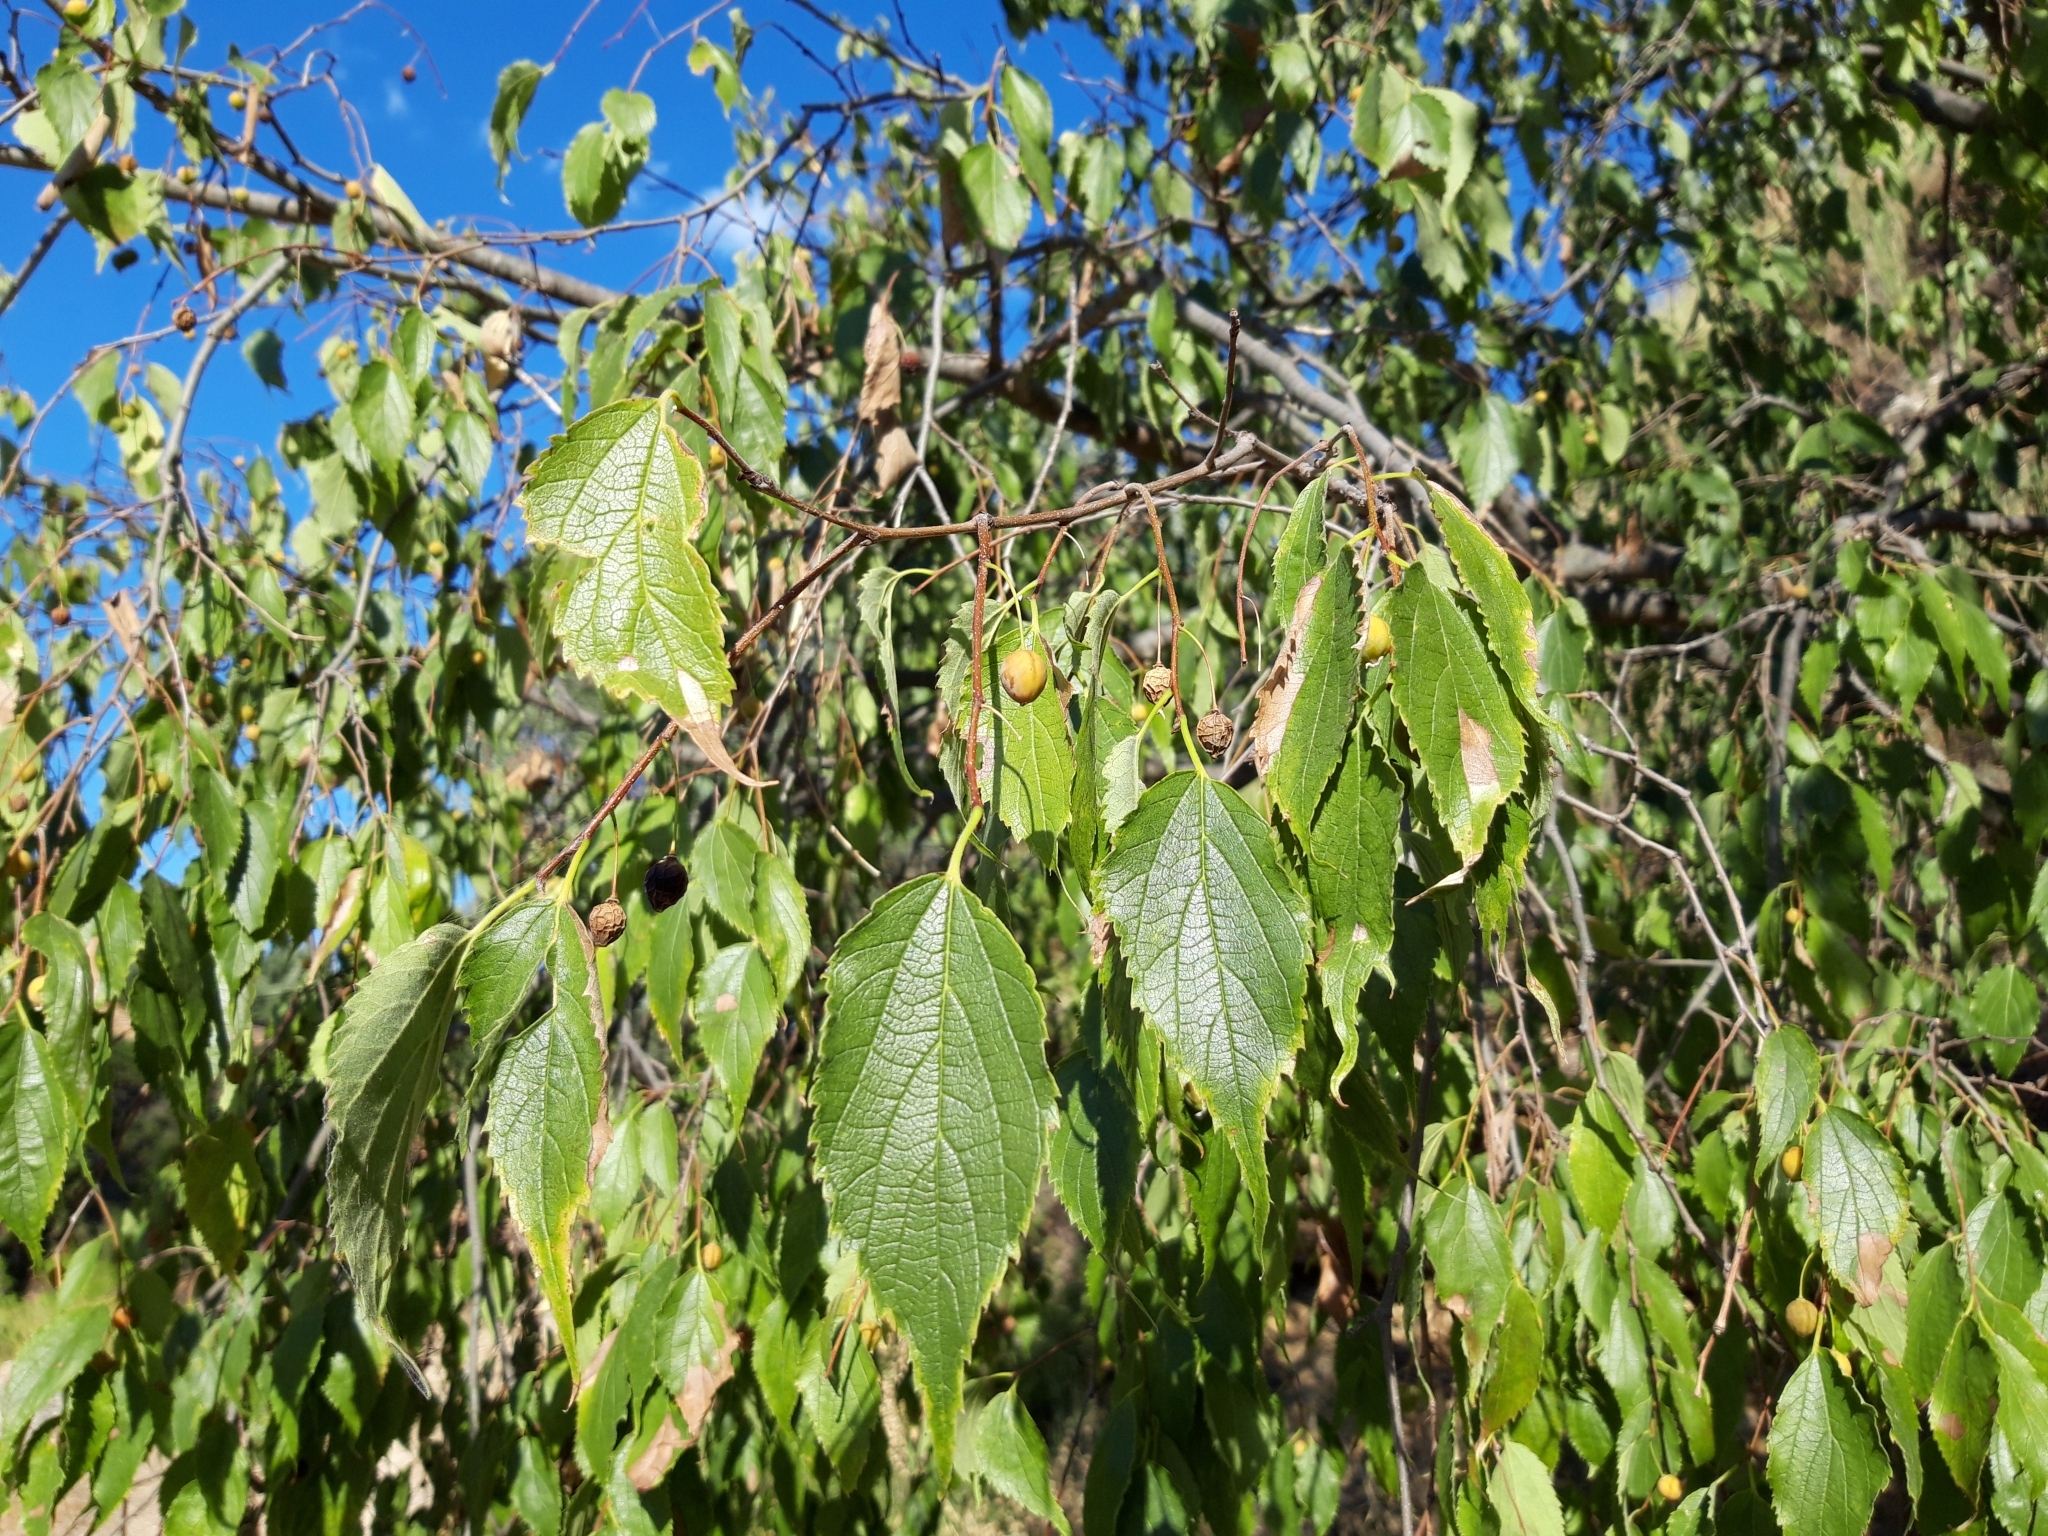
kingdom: Plantae
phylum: Tracheophyta
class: Magnoliopsida
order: Rosales
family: Cannabaceae
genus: Celtis
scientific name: Celtis australis
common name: European hackberry
